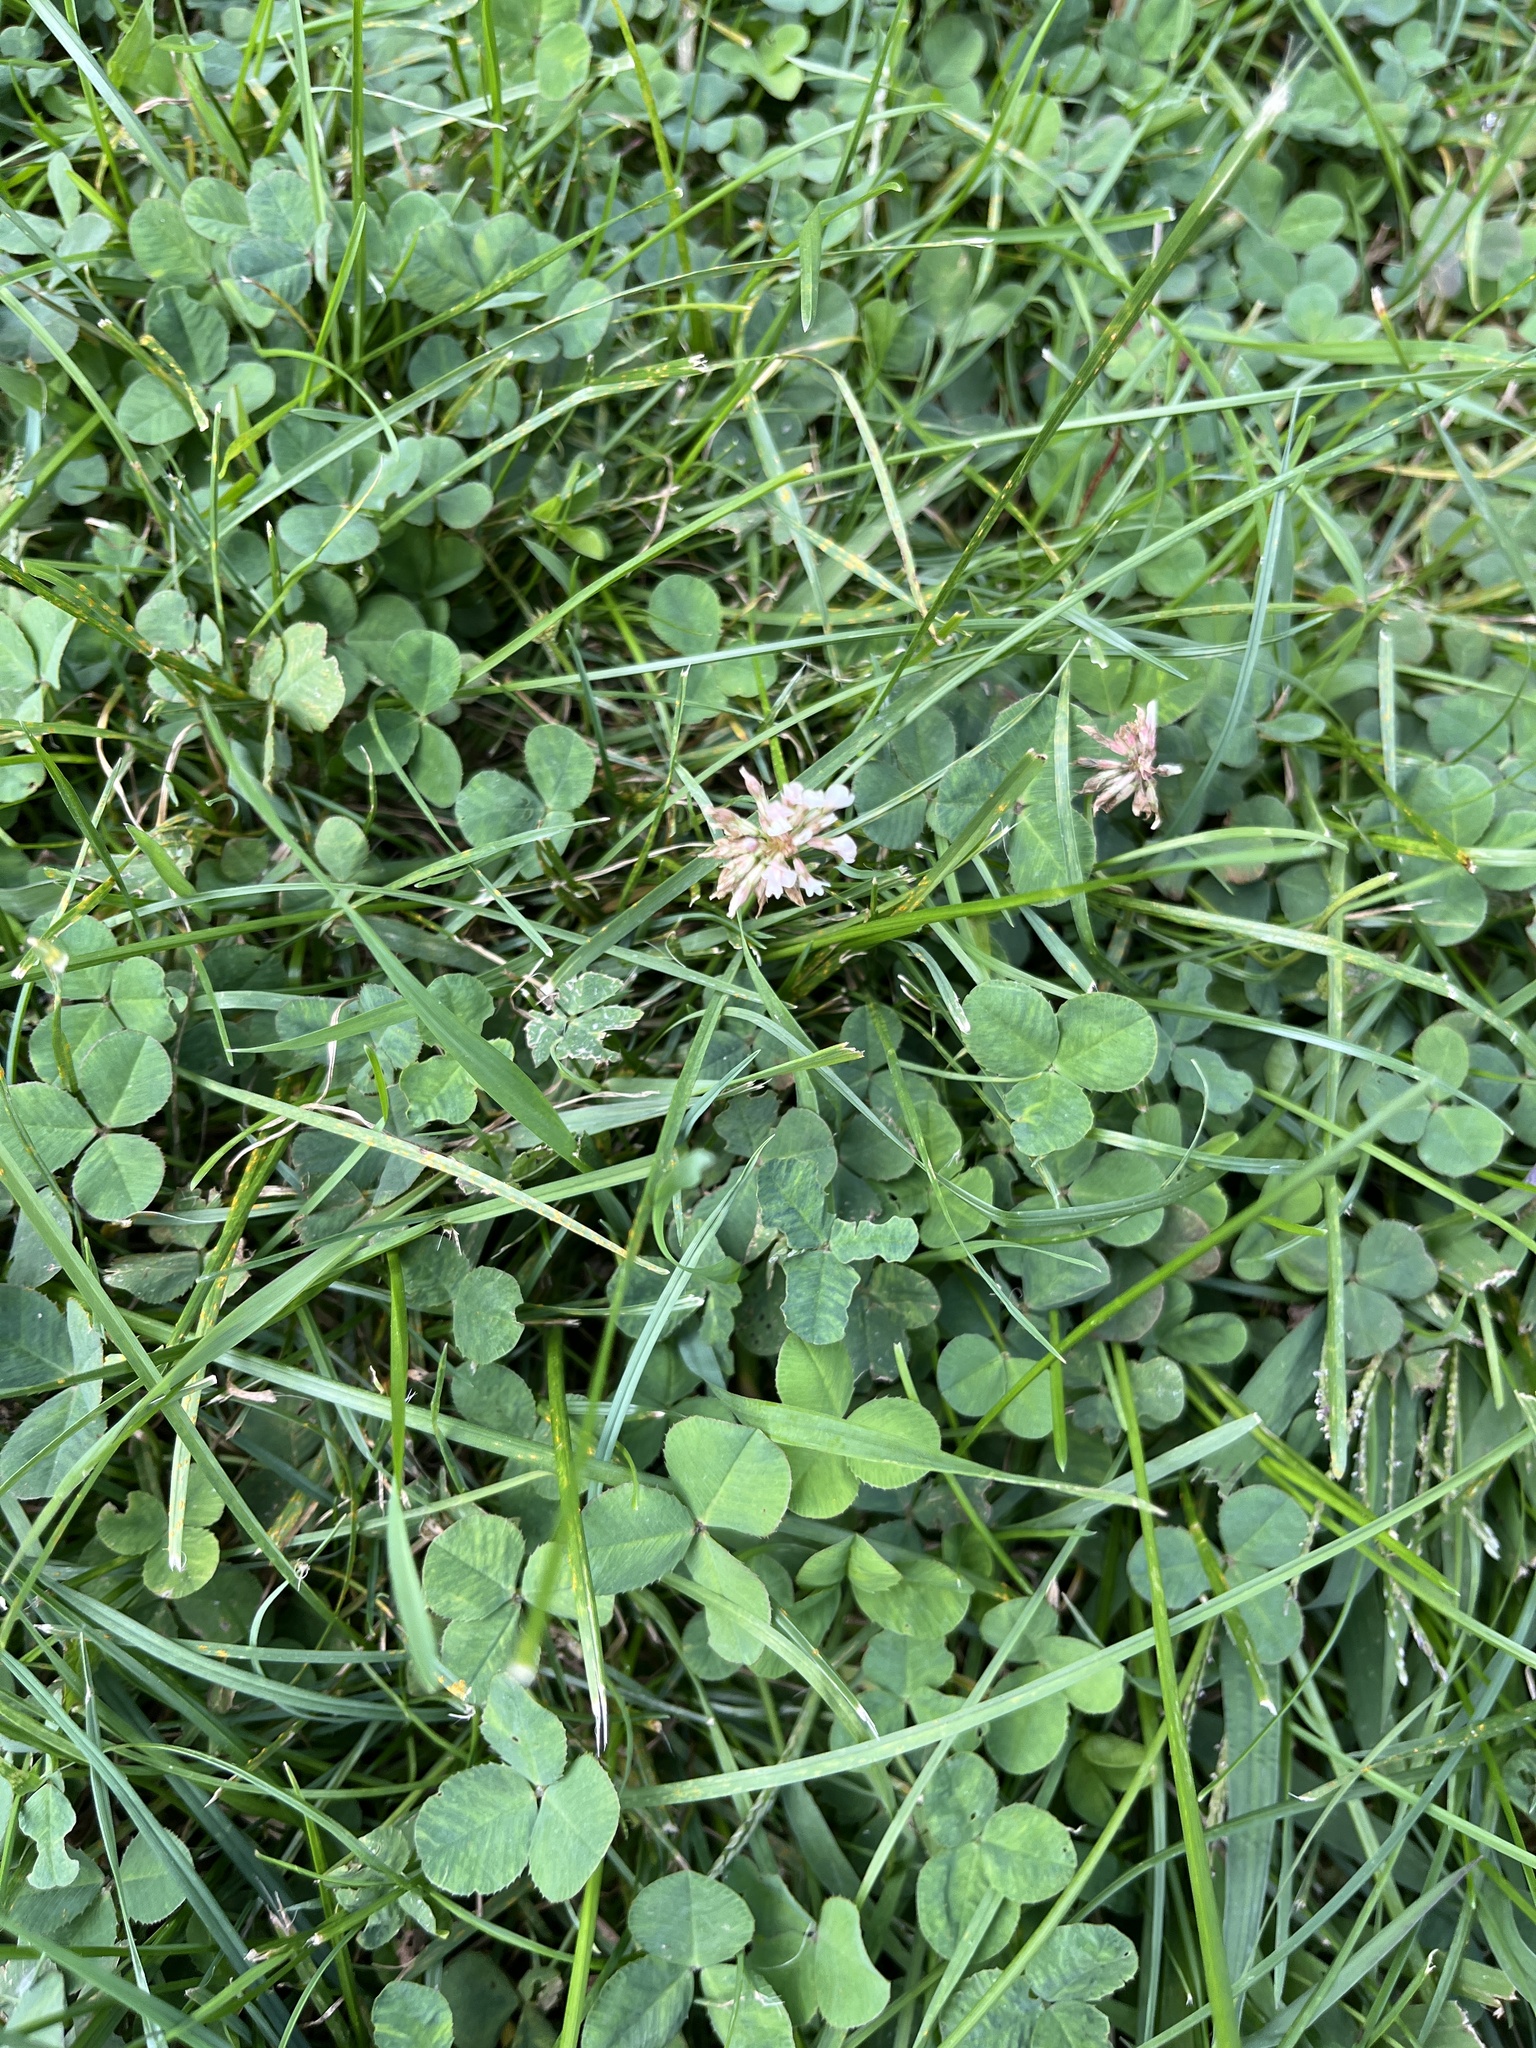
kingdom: Plantae
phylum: Tracheophyta
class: Magnoliopsida
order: Fabales
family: Fabaceae
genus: Trifolium
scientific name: Trifolium repens
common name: White clover
